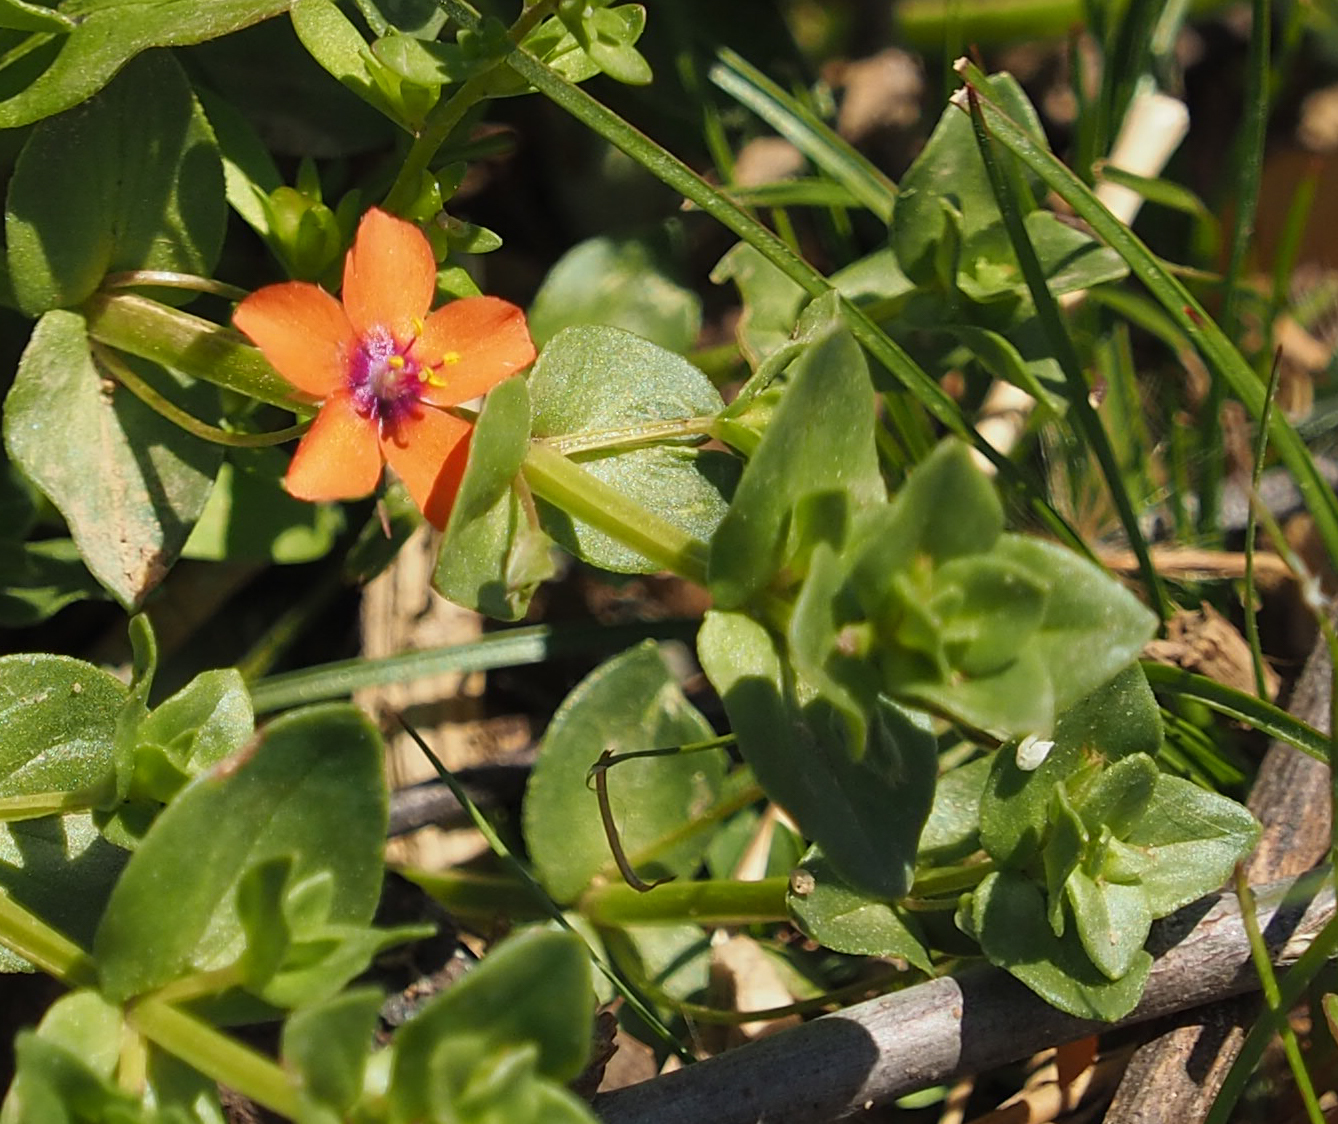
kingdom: Plantae
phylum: Tracheophyta
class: Magnoliopsida
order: Ericales
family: Primulaceae
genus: Lysimachia
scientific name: Lysimachia arvensis
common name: Scarlet pimpernel
